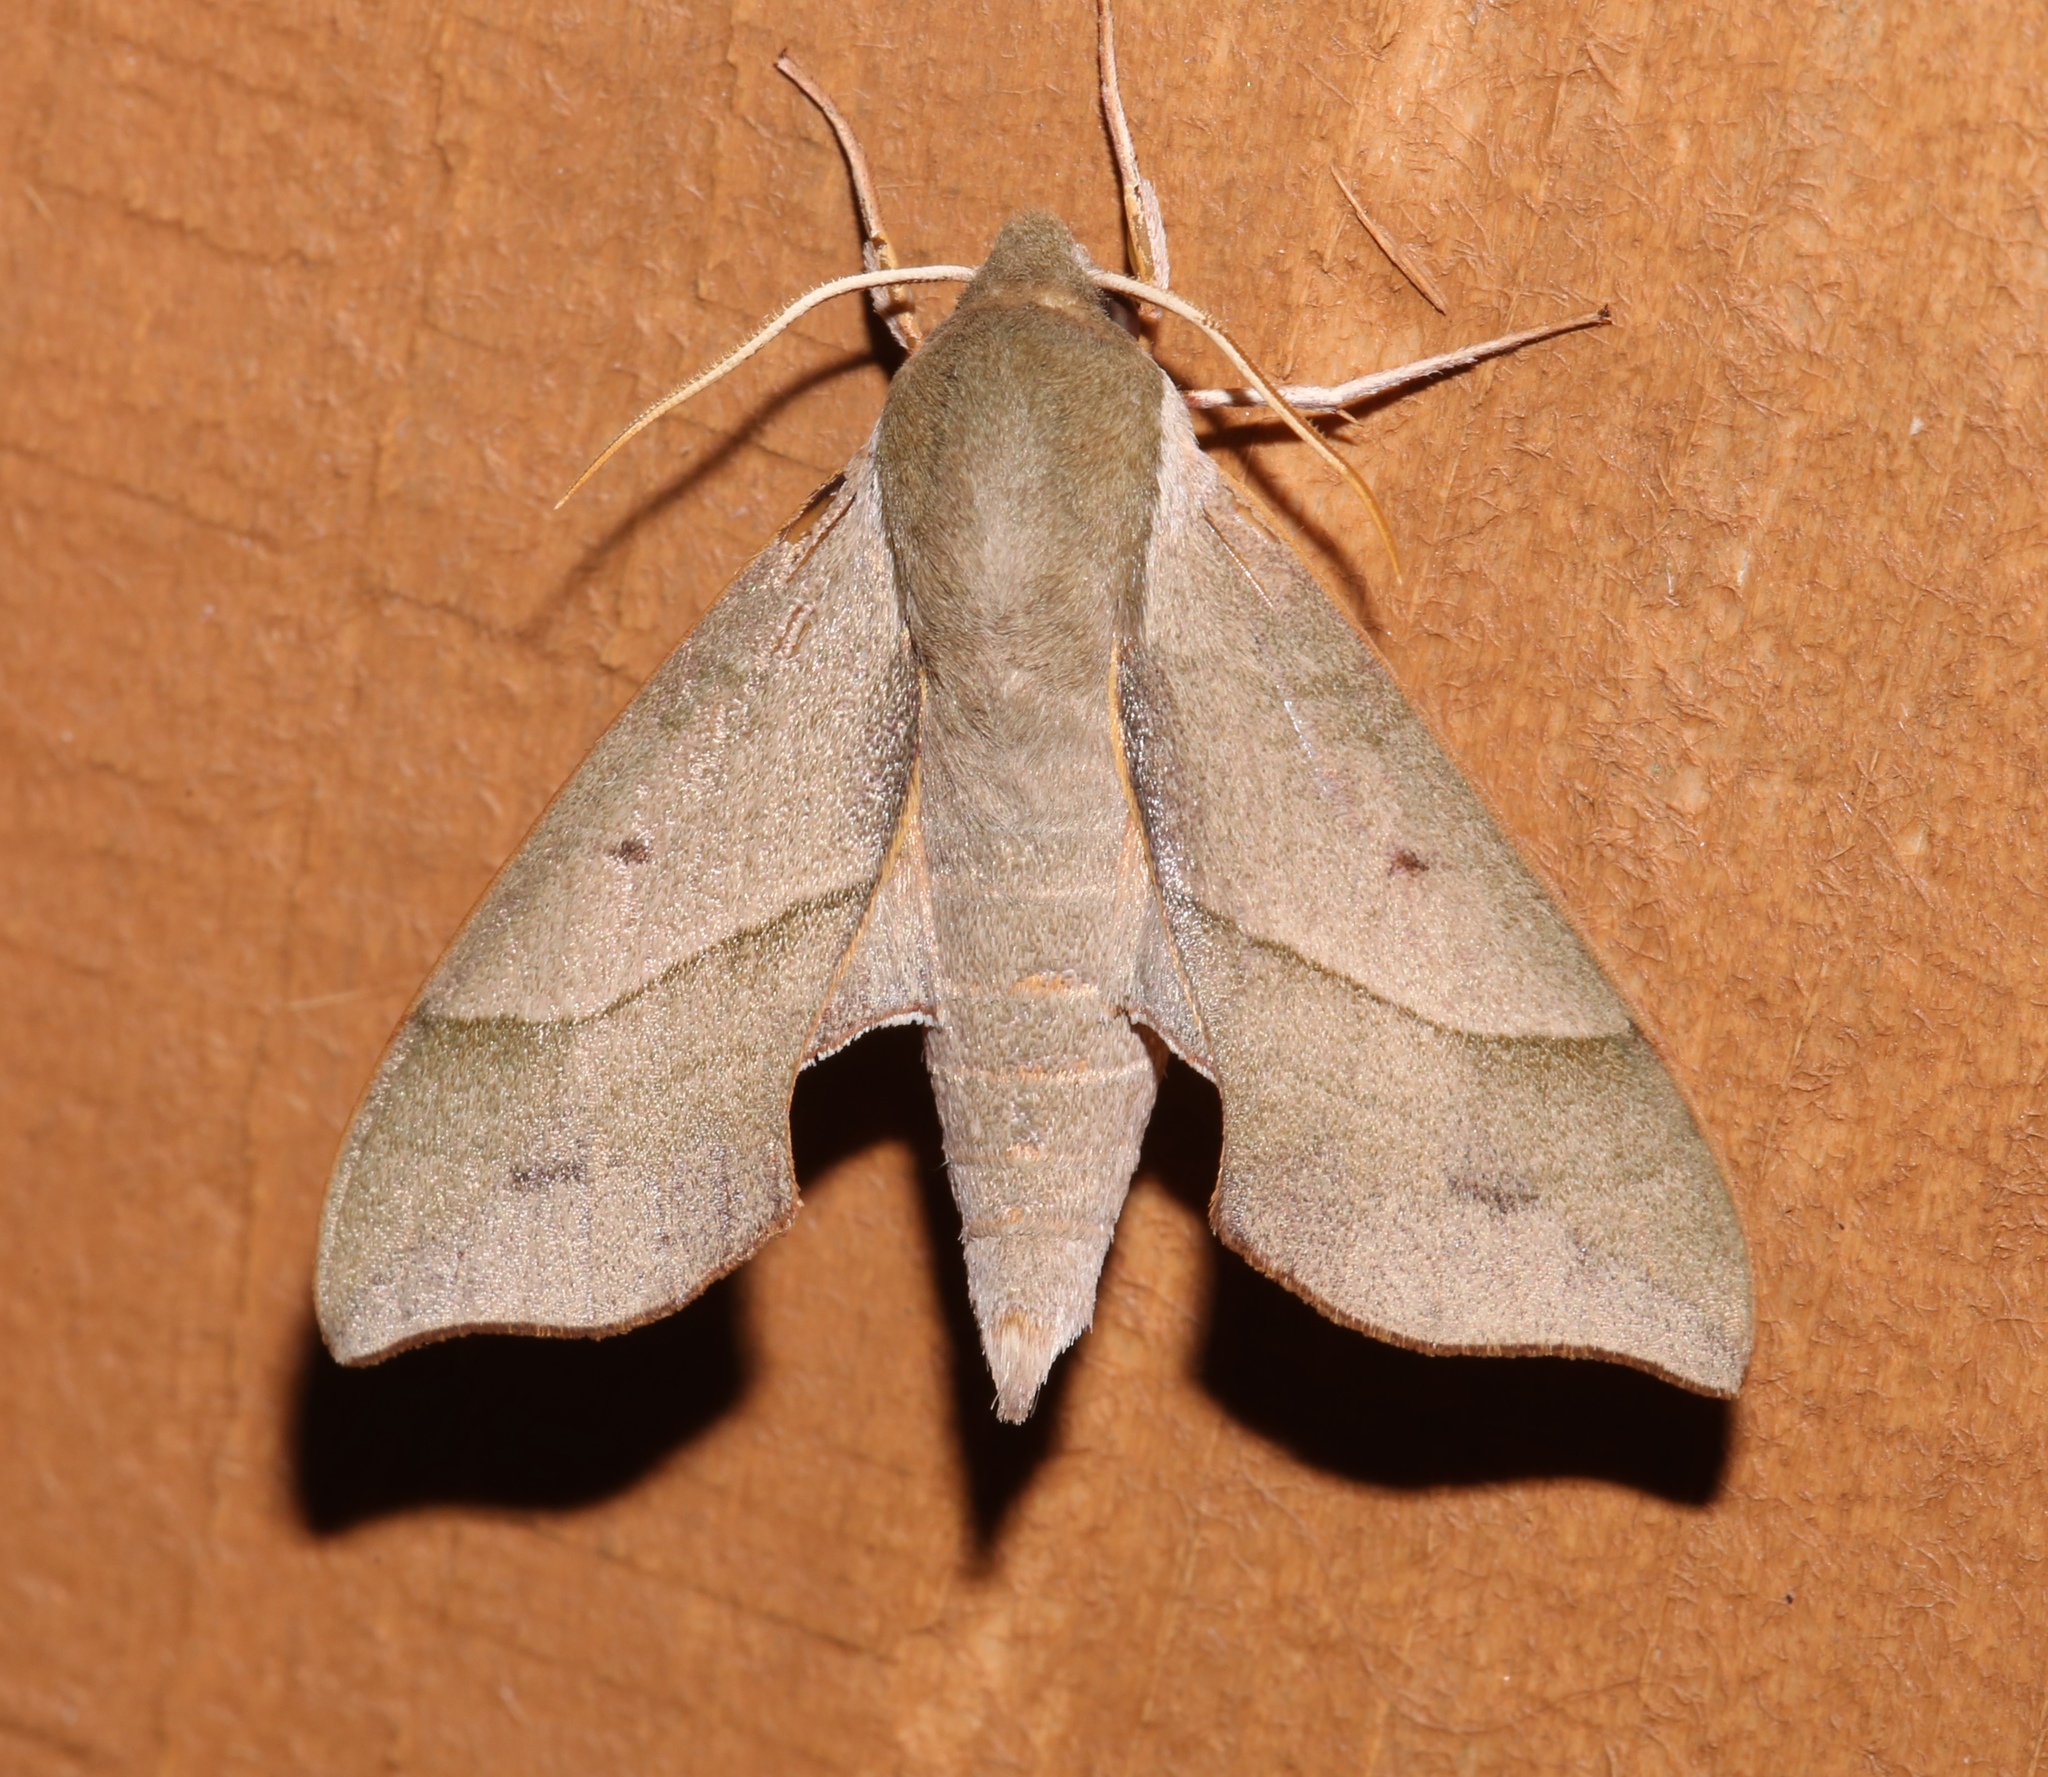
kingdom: Animalia
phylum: Arthropoda
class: Insecta
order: Lepidoptera
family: Sphingidae
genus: Darapsa
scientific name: Darapsa myron
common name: Hog sphinx
